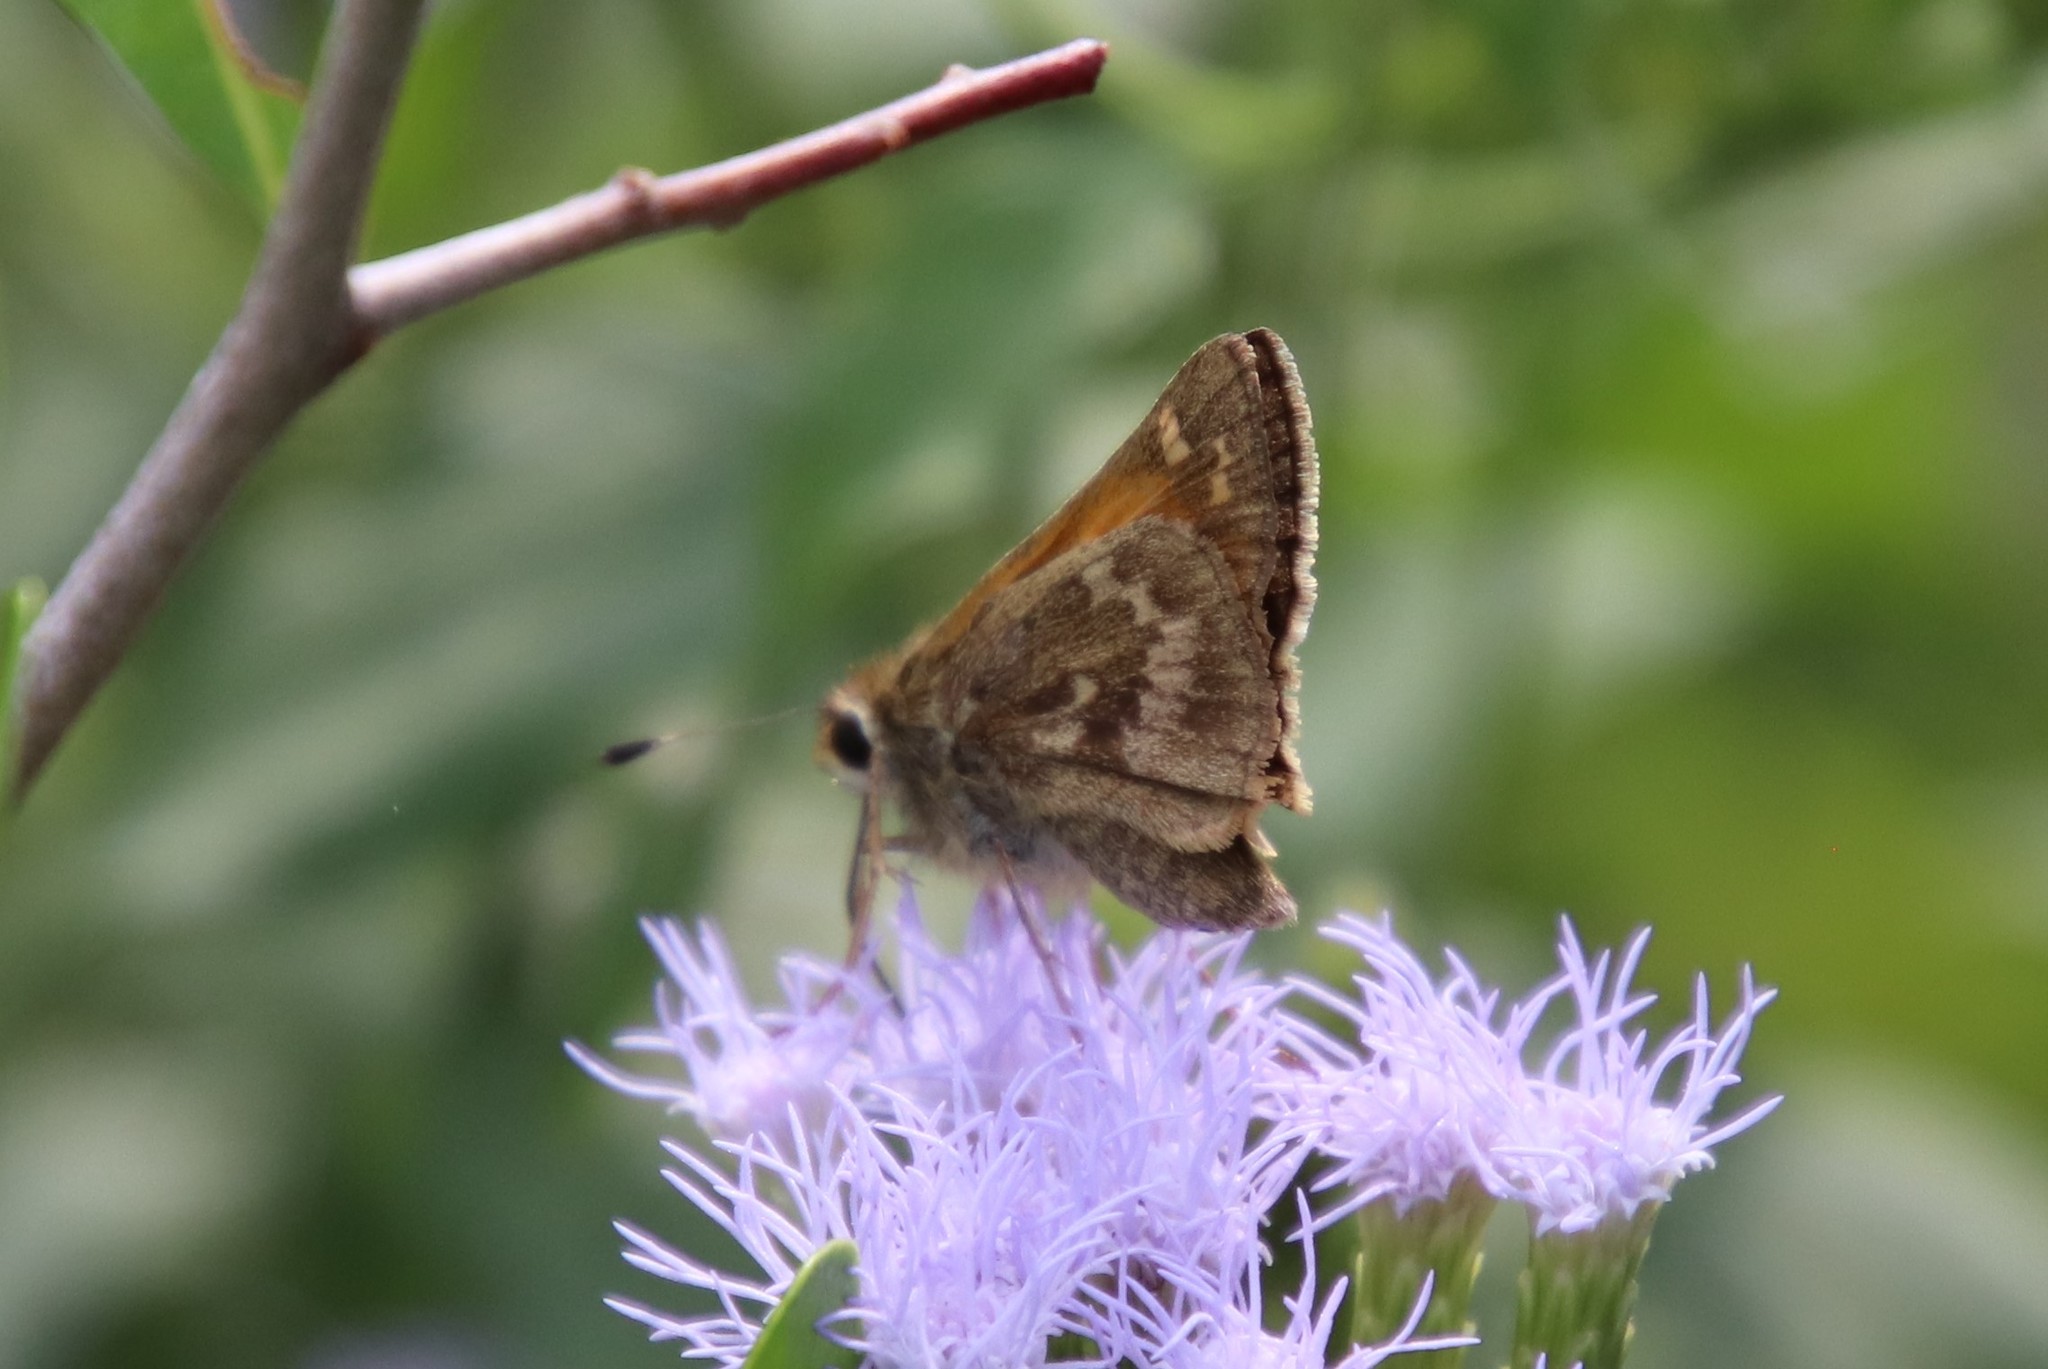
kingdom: Animalia
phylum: Arthropoda
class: Insecta
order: Lepidoptera
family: Hesperiidae
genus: Atalopedes
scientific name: Atalopedes
